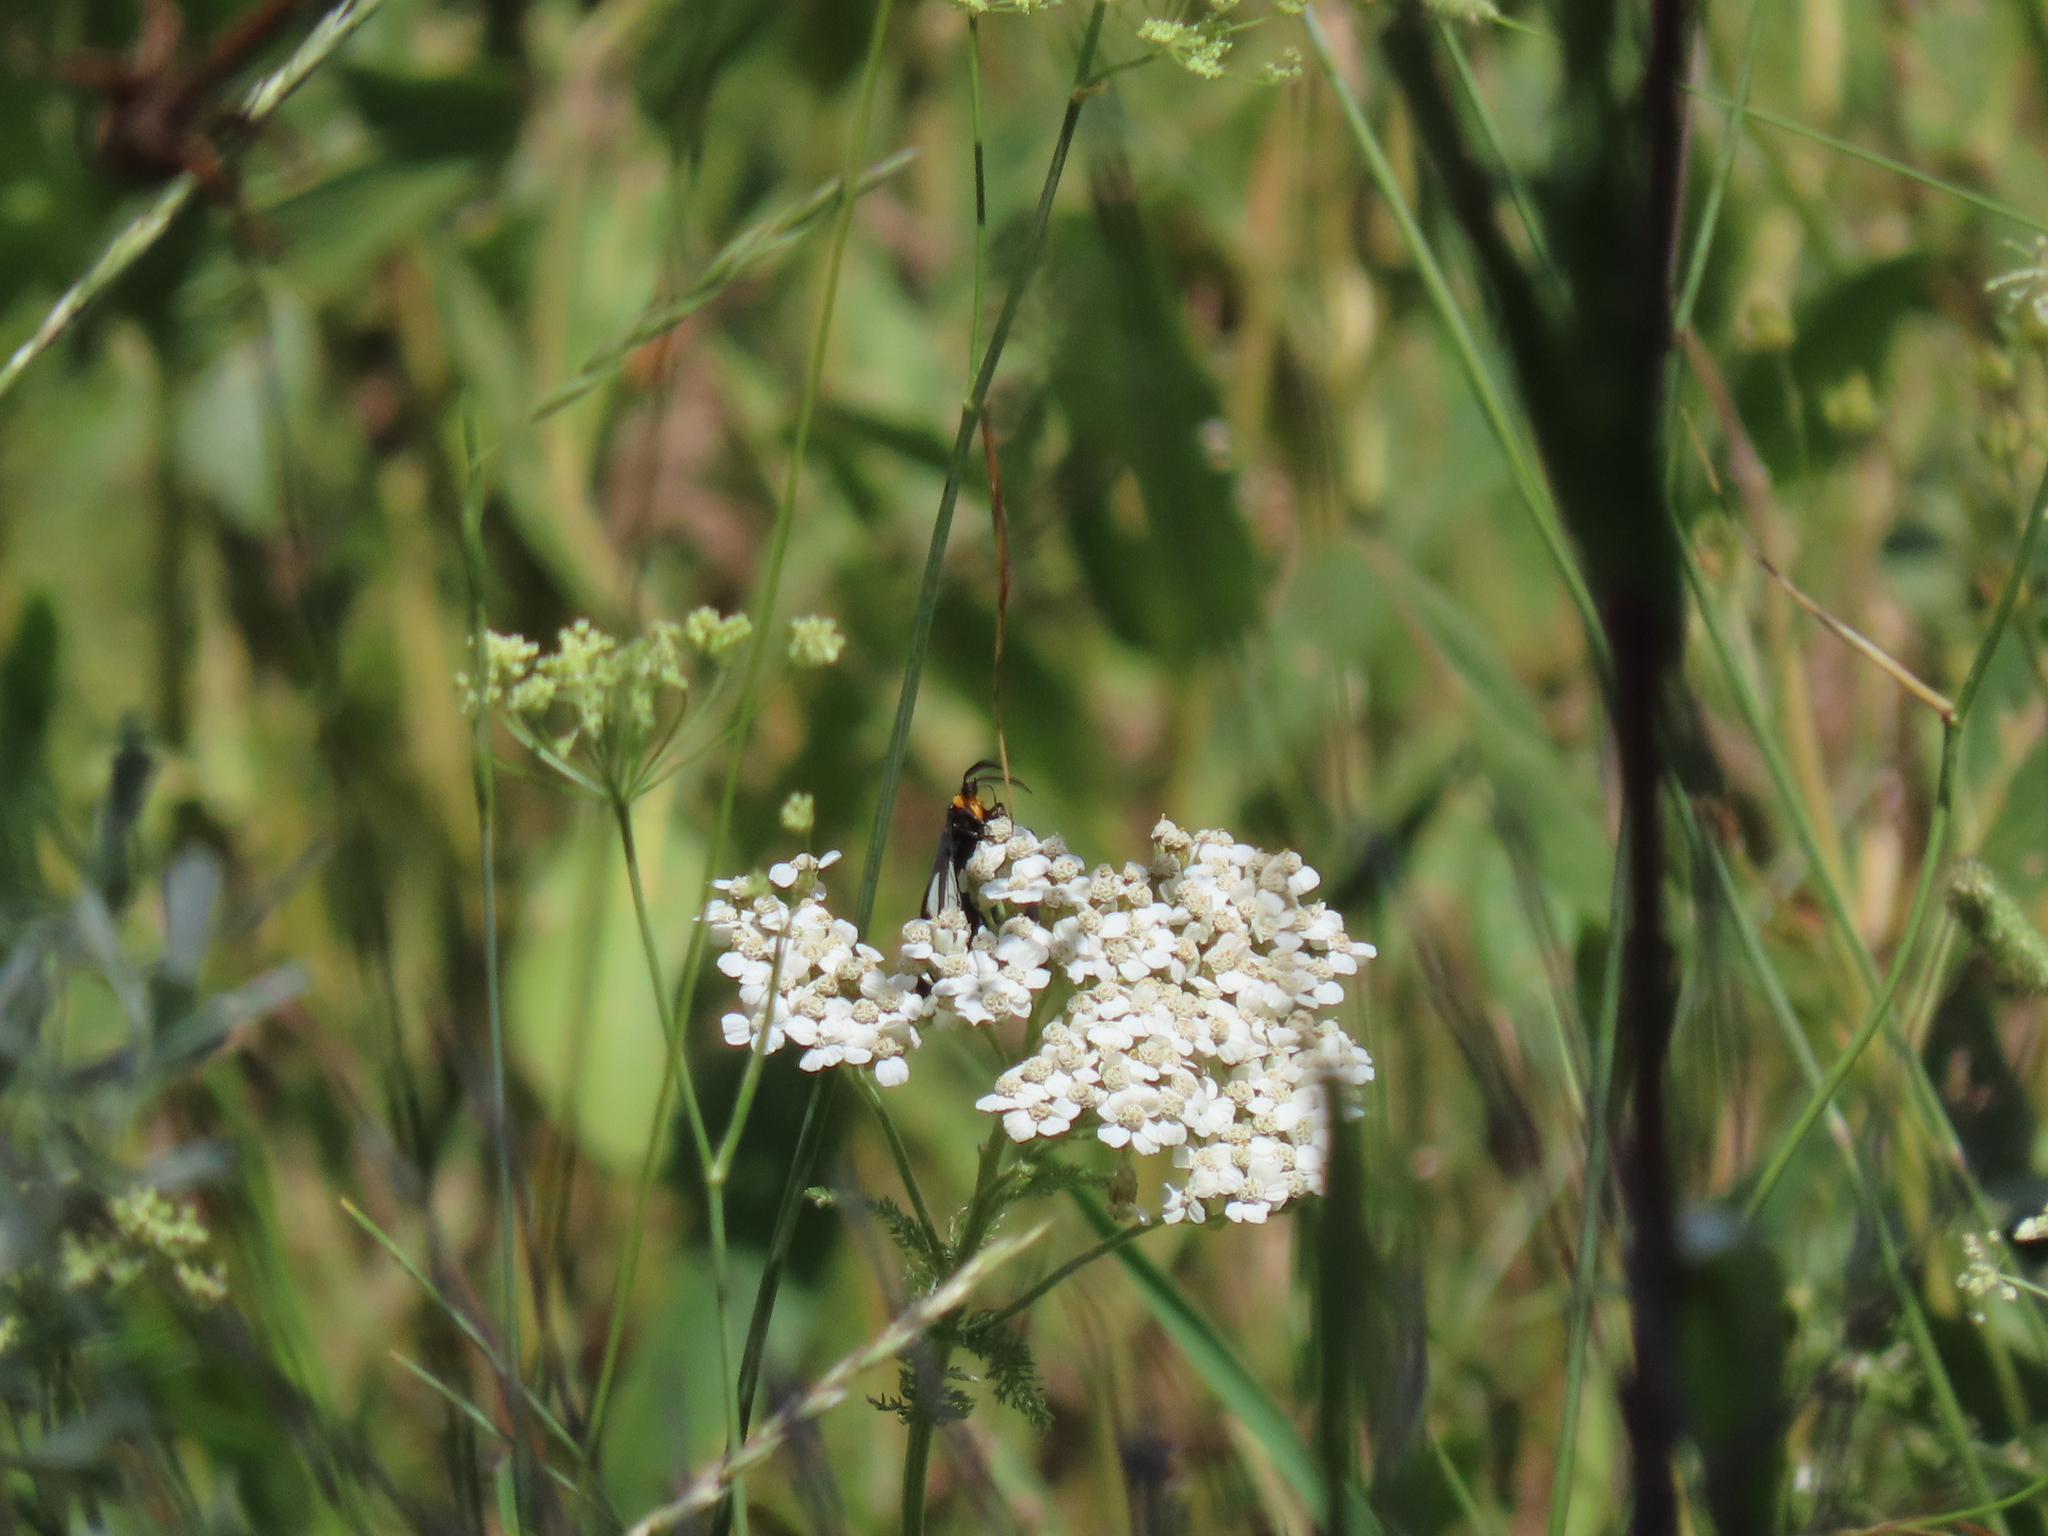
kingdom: Animalia
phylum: Arthropoda
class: Insecta
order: Lepidoptera
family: Erebidae
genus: Gnophaela
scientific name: Gnophaela vermiculata
